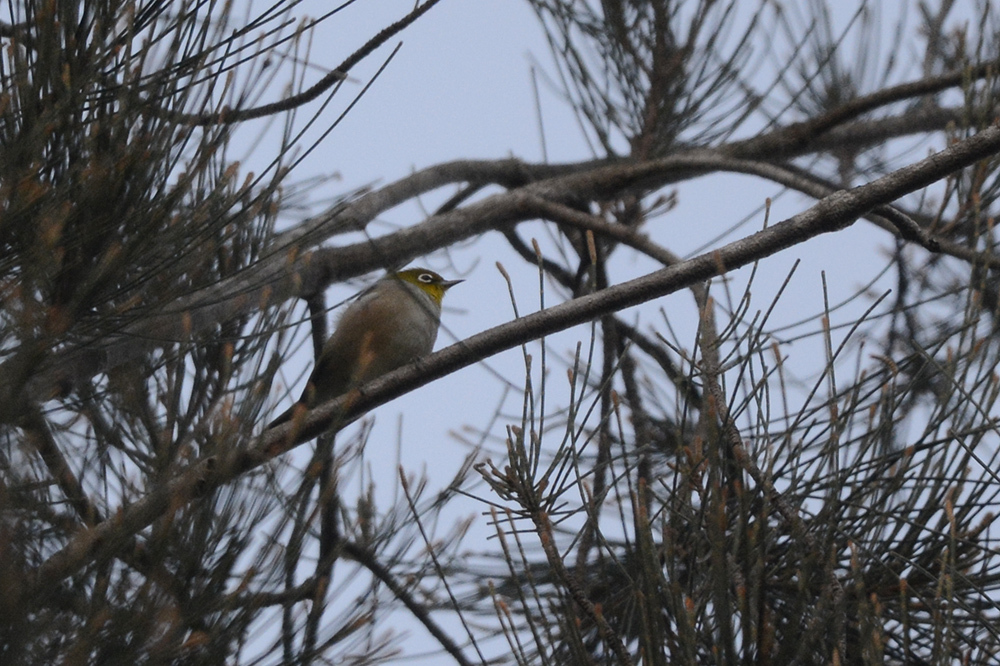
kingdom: Animalia
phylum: Chordata
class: Aves
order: Passeriformes
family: Zosteropidae
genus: Zosterops
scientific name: Zosterops lateralis
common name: Silvereye
